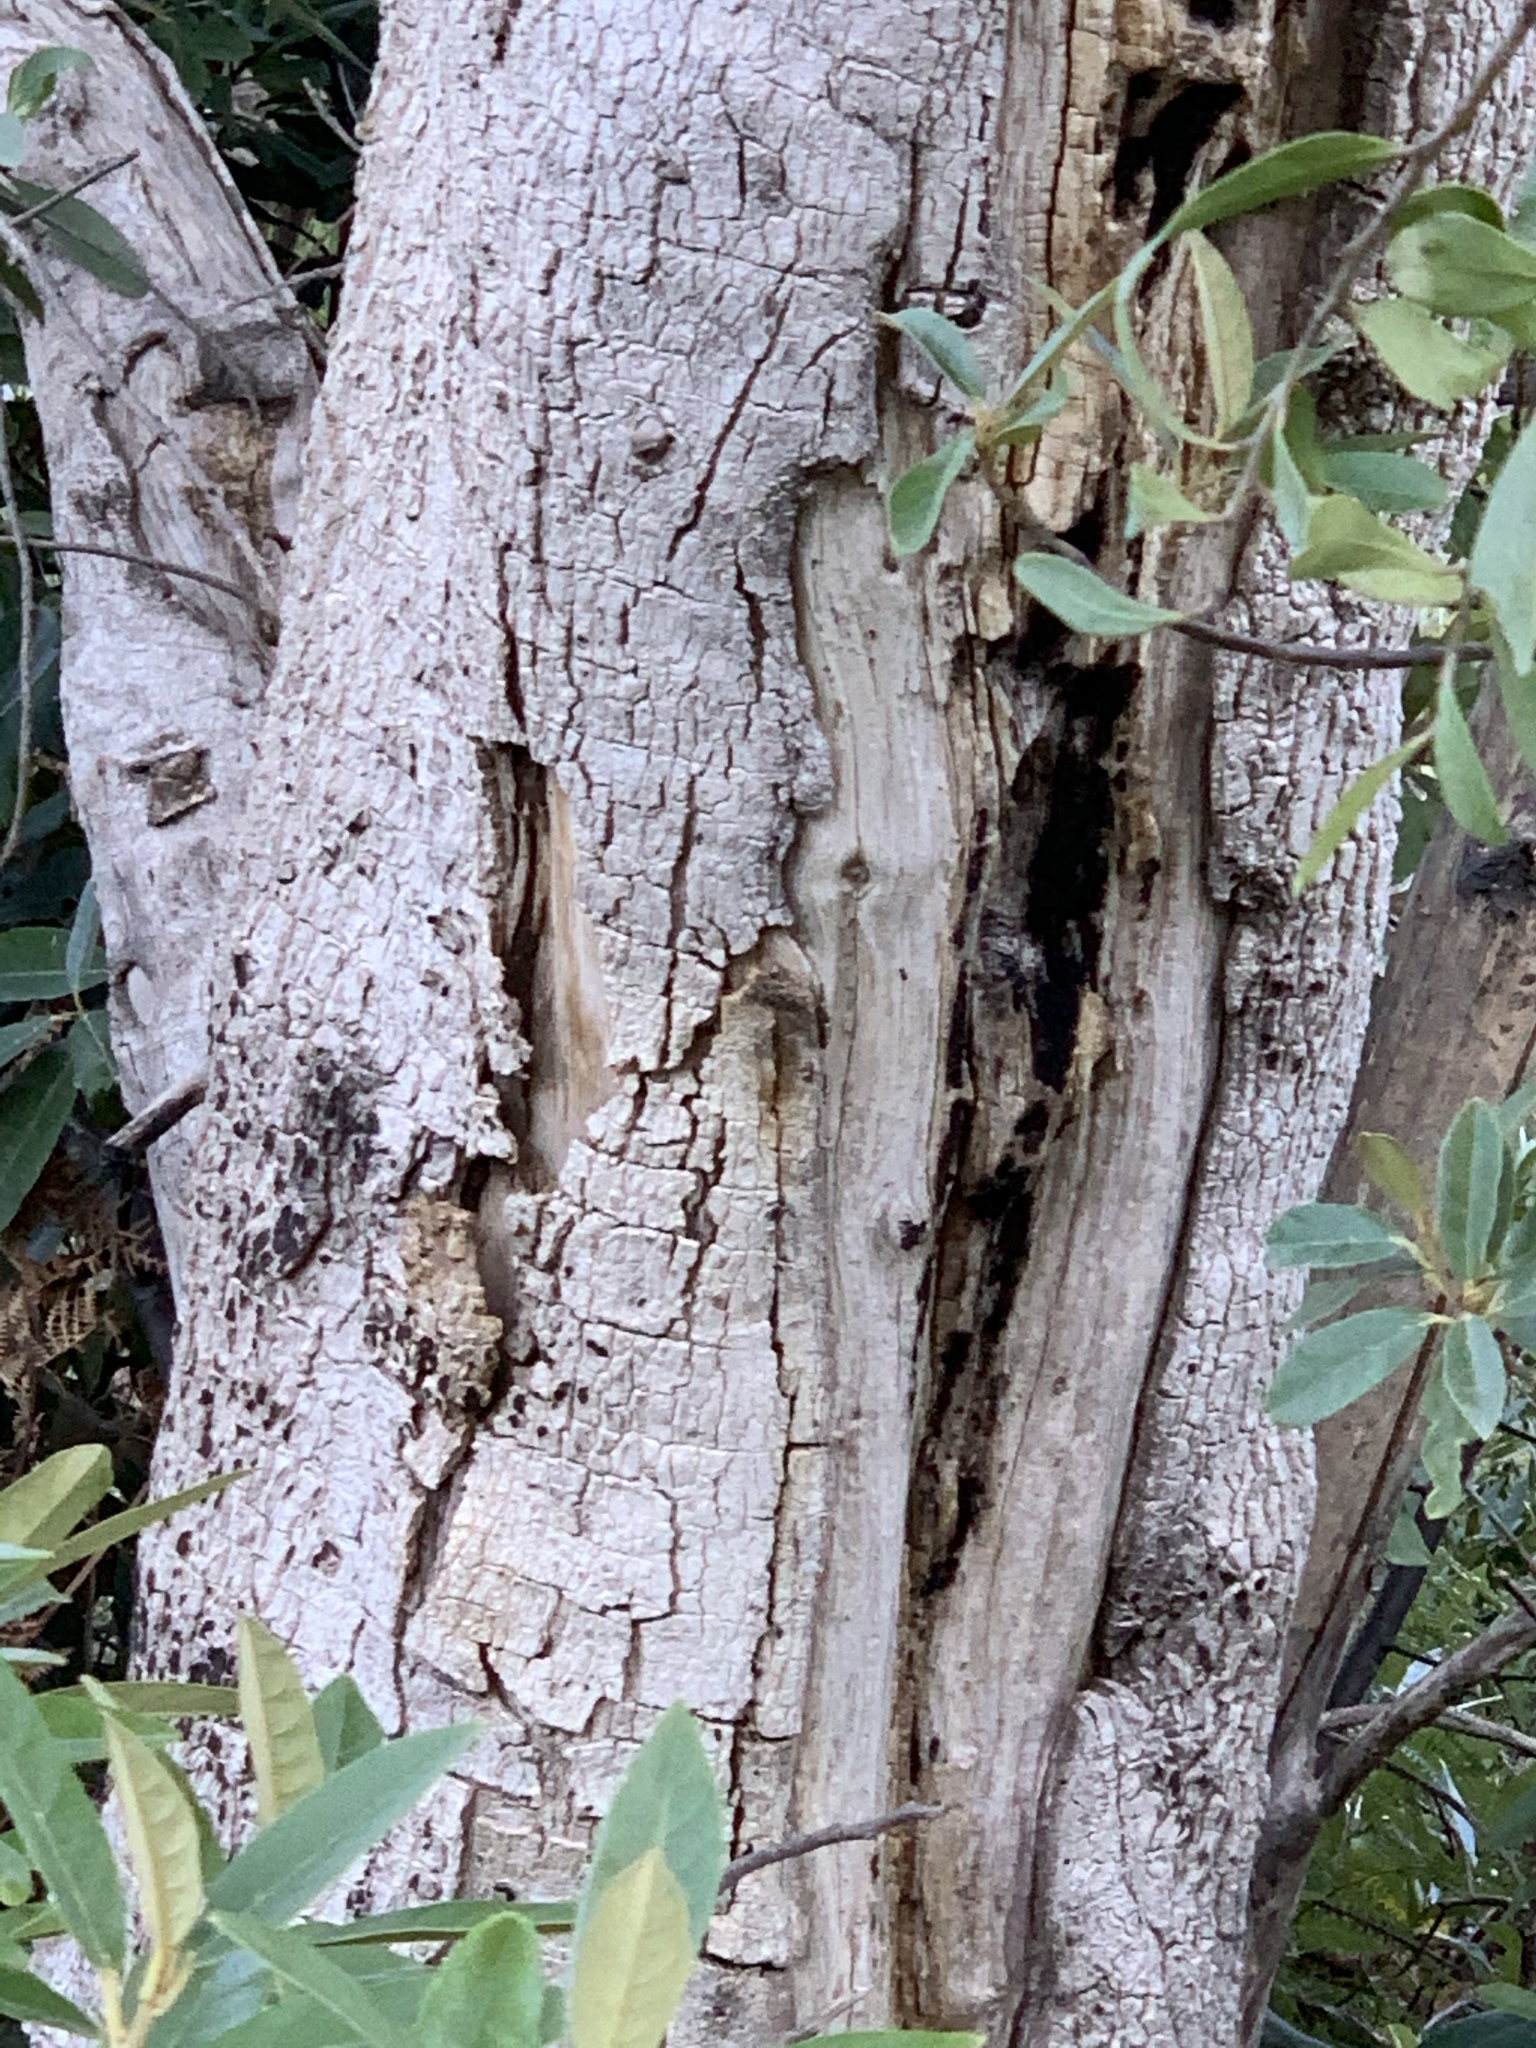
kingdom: Plantae
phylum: Tracheophyta
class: Magnoliopsida
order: Celastrales
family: Celastraceae
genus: Gymnosporia
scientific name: Gymnosporia laurina
